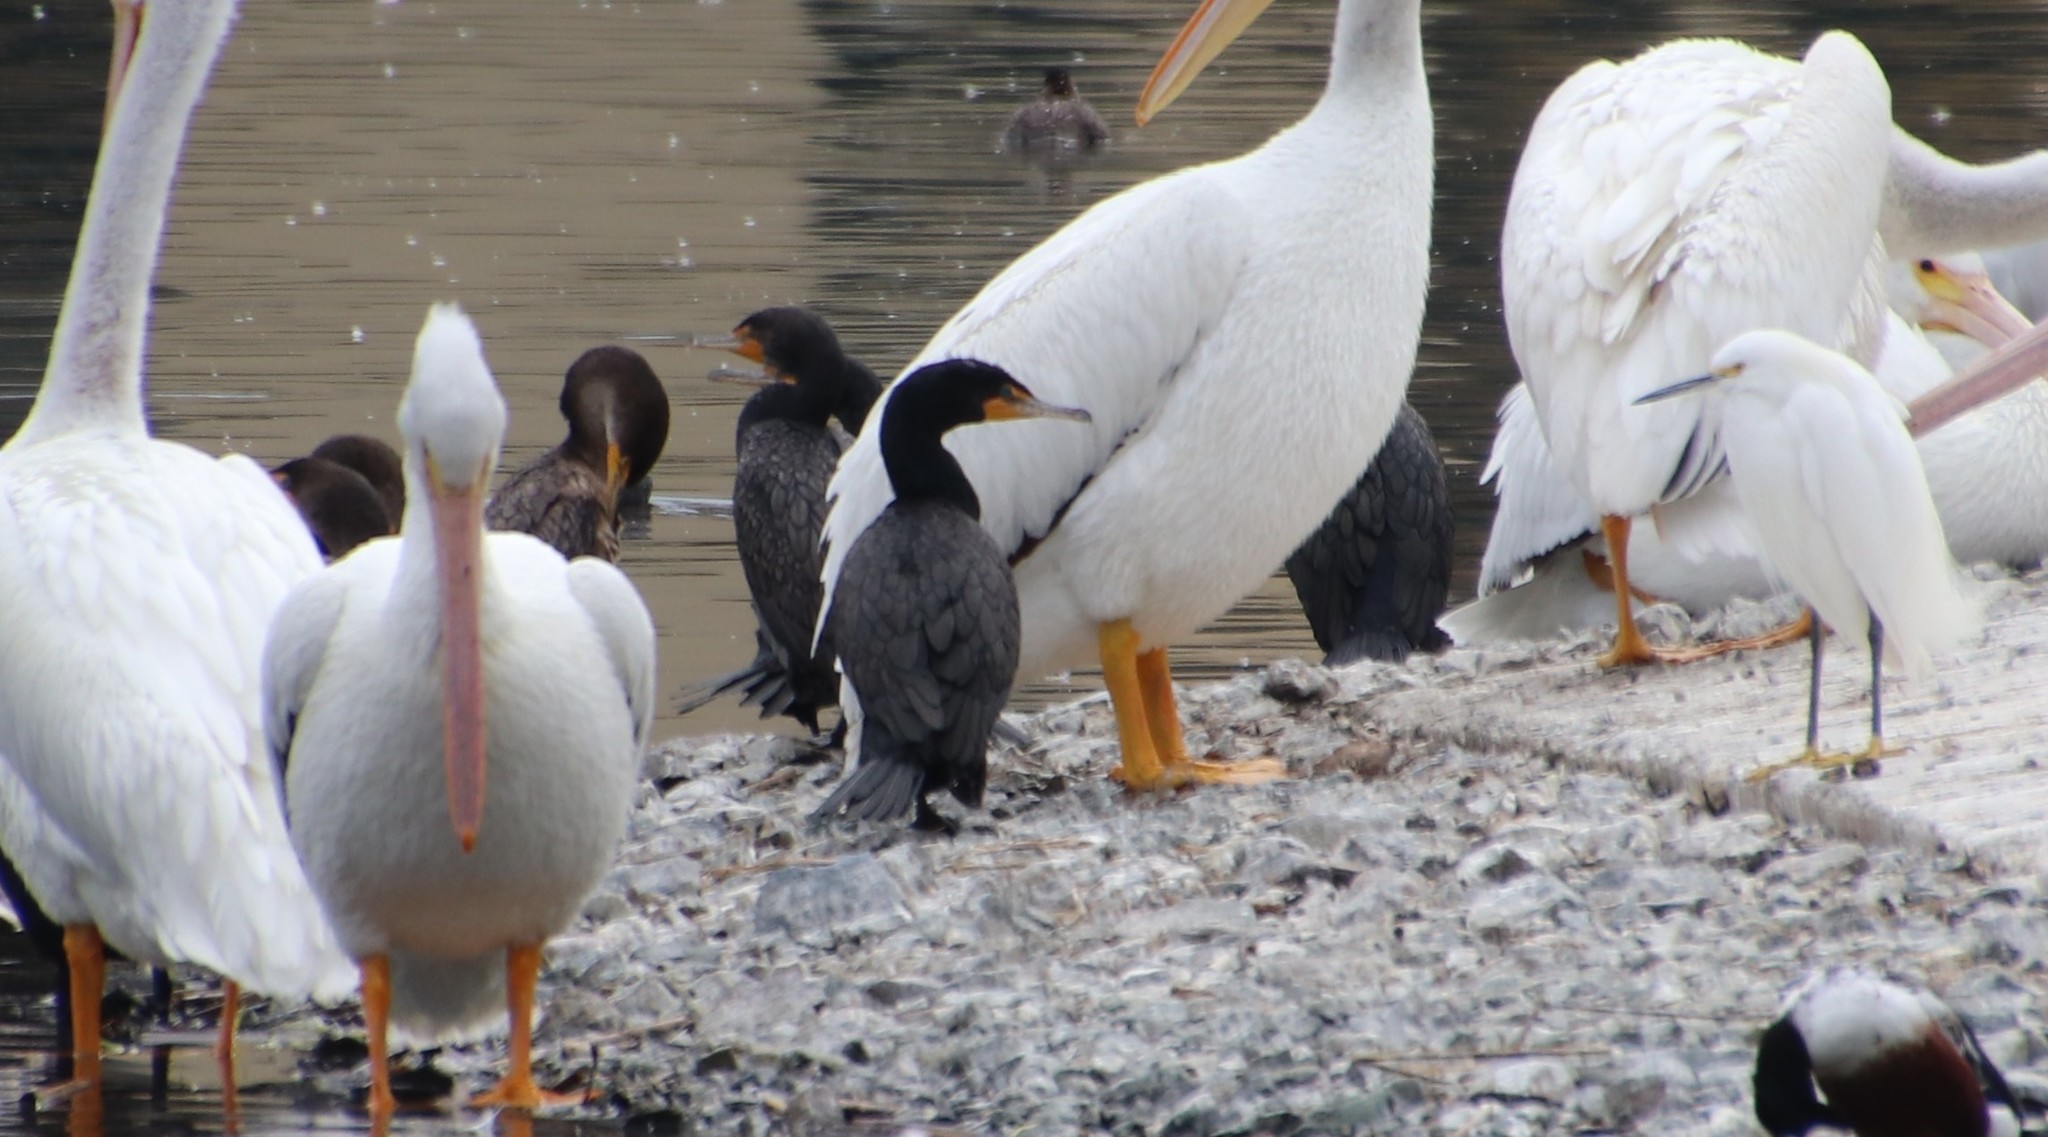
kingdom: Animalia
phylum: Chordata
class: Aves
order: Suliformes
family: Phalacrocoracidae
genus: Phalacrocorax
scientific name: Phalacrocorax auritus
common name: Double-crested cormorant
